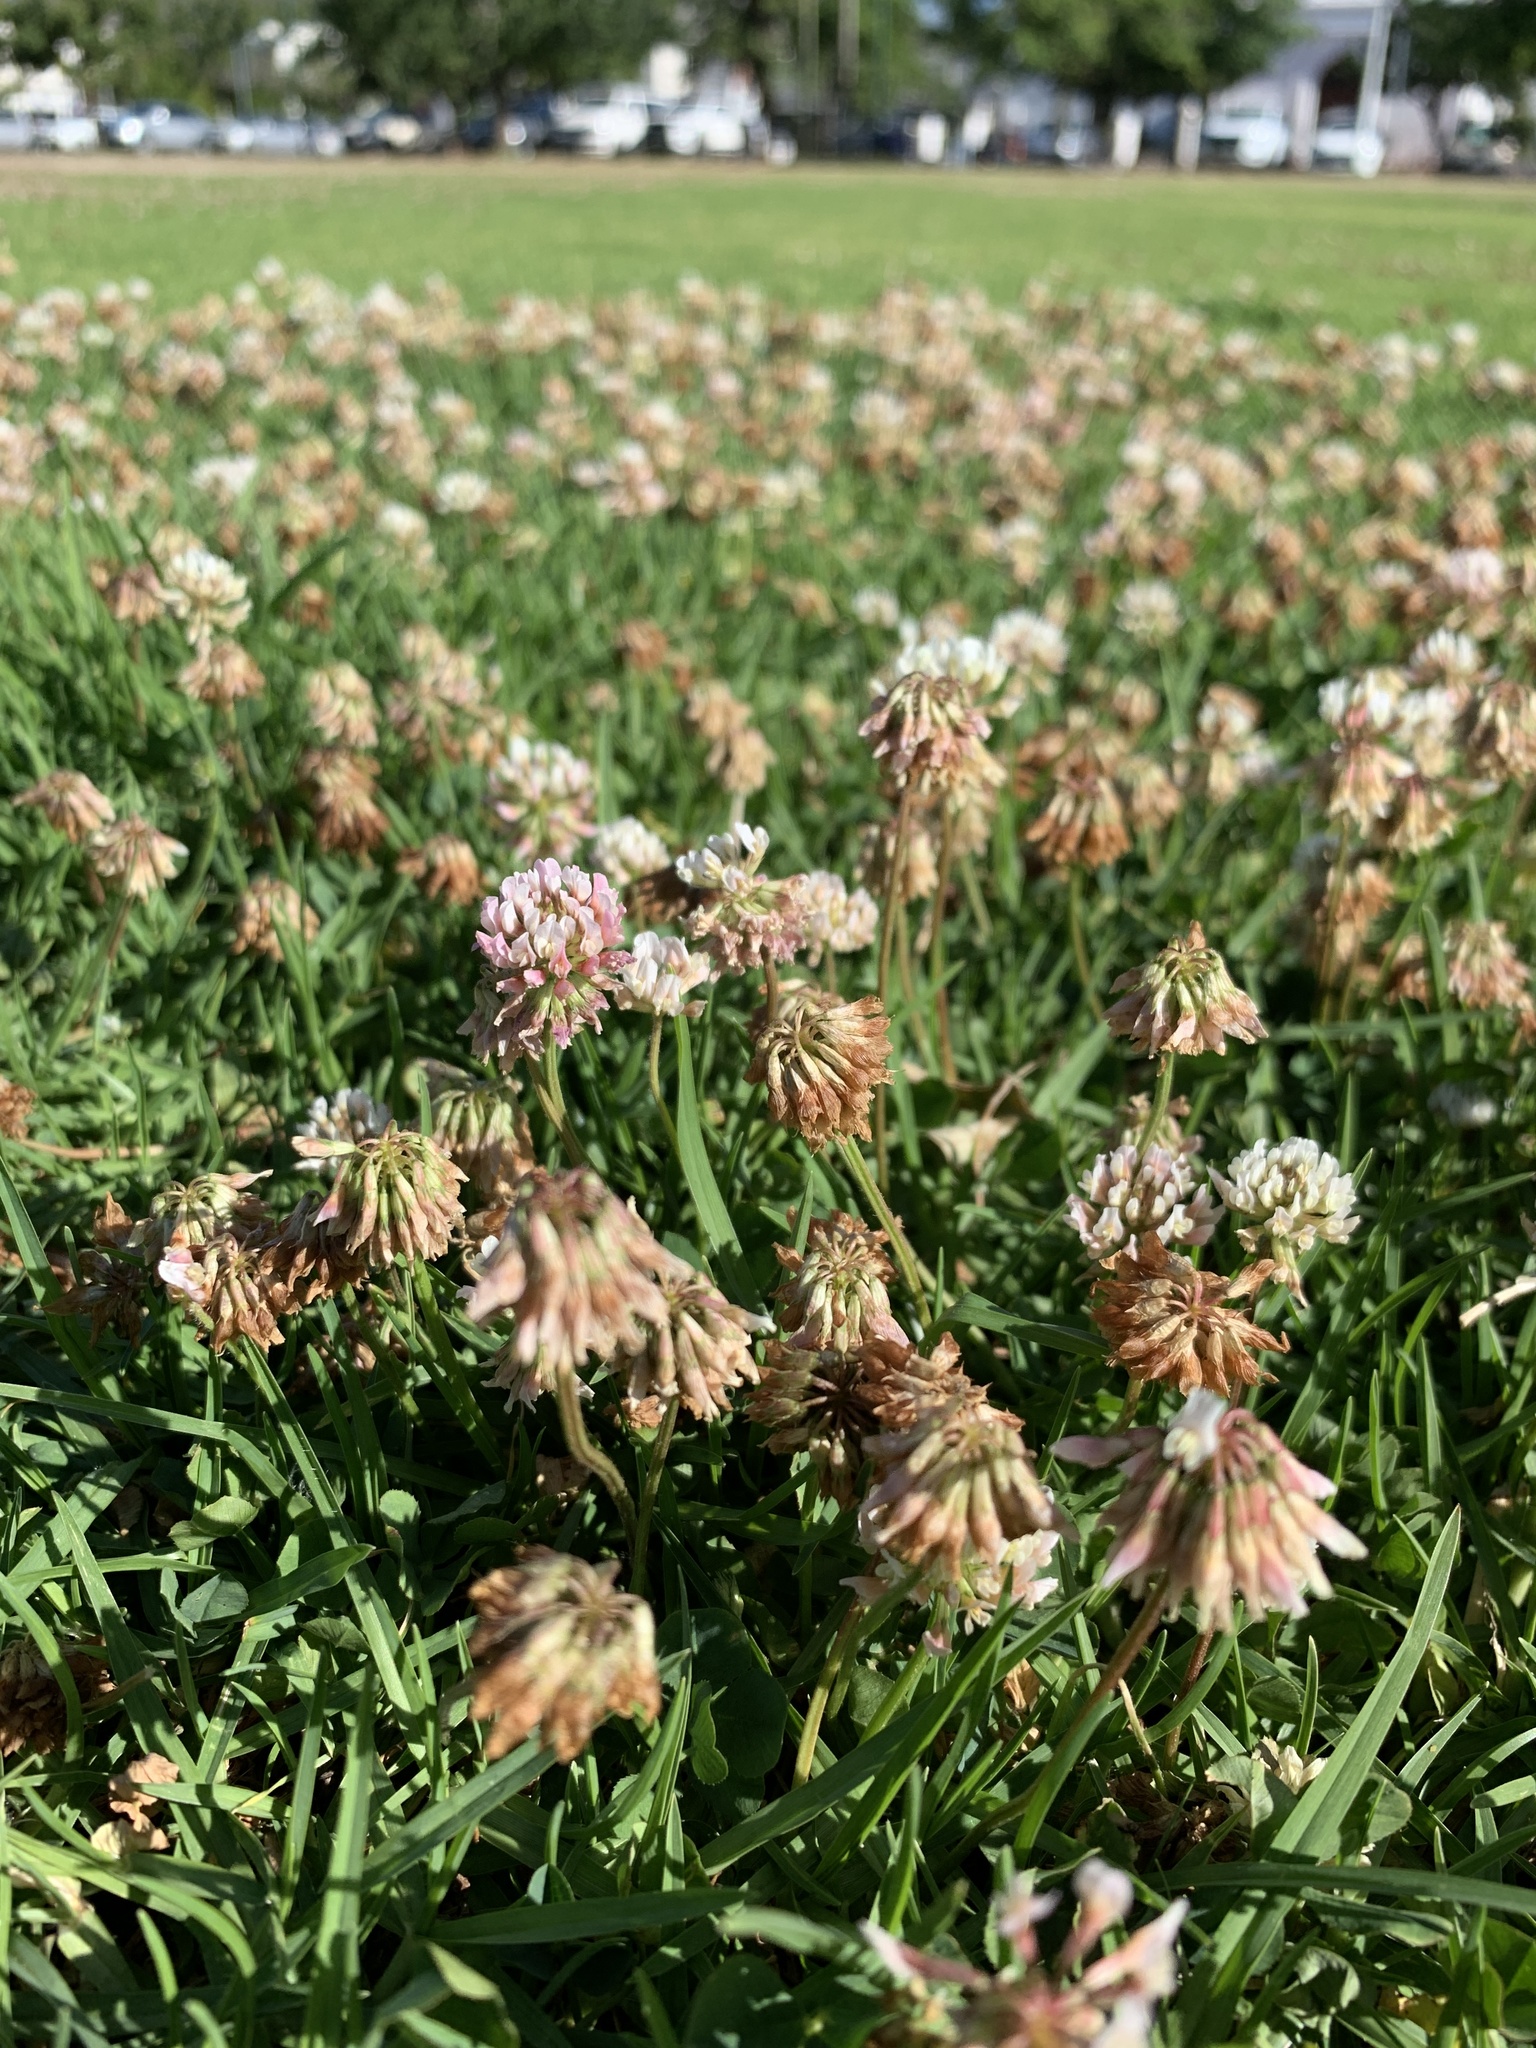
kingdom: Plantae
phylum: Tracheophyta
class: Magnoliopsida
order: Fabales
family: Fabaceae
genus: Trifolium
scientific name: Trifolium repens
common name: White clover
